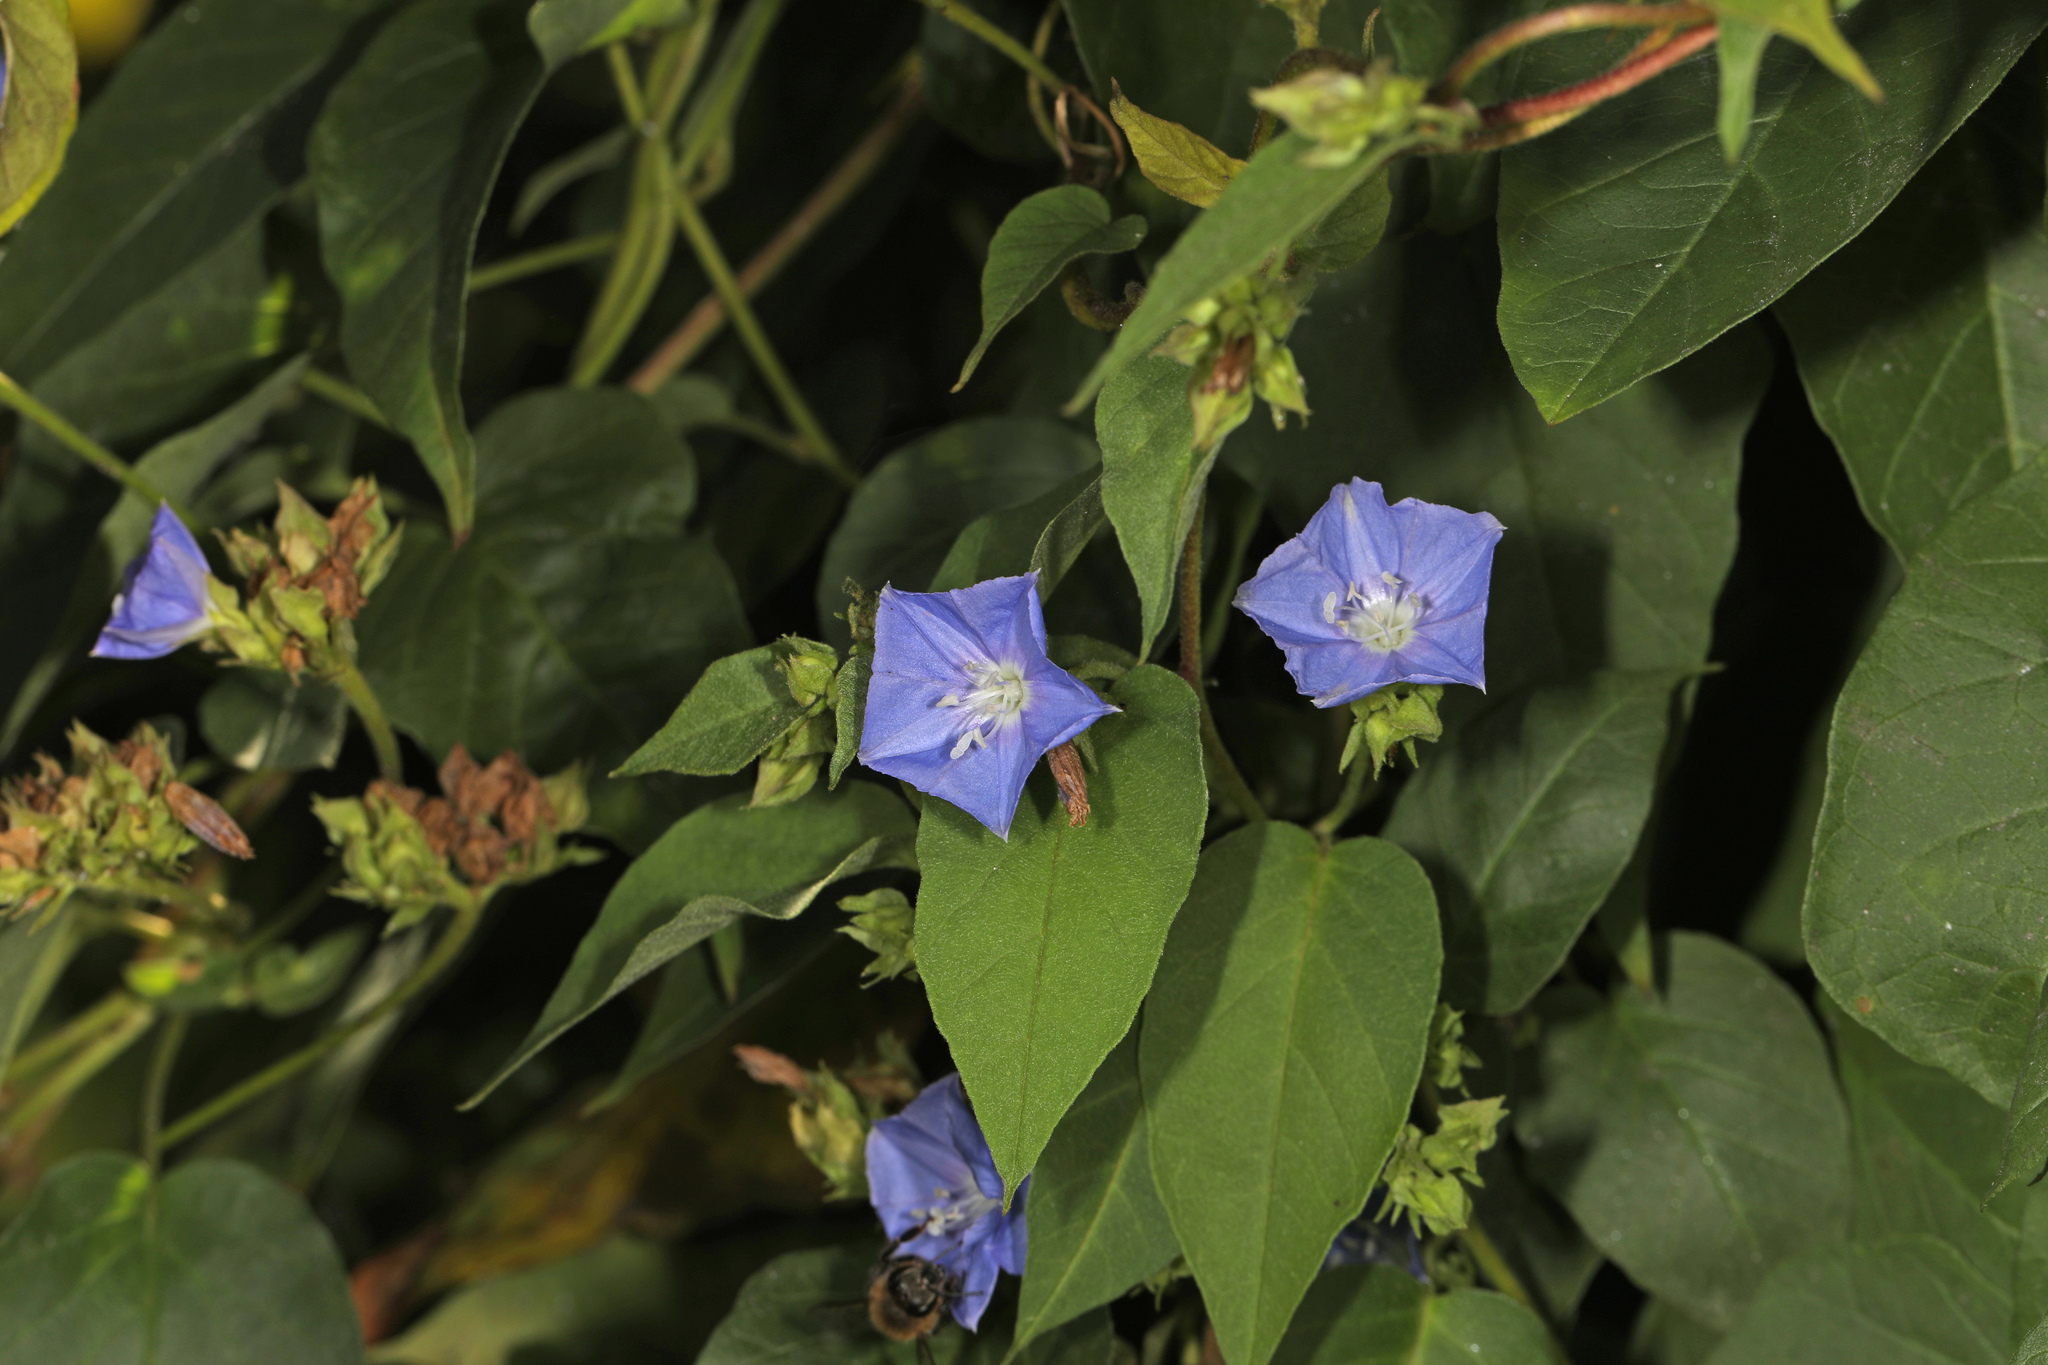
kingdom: Plantae
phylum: Tracheophyta
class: Magnoliopsida
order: Solanales
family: Convolvulaceae
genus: Jacquemontia
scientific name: Jacquemontia pentanthos
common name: Skyblue clustervine
